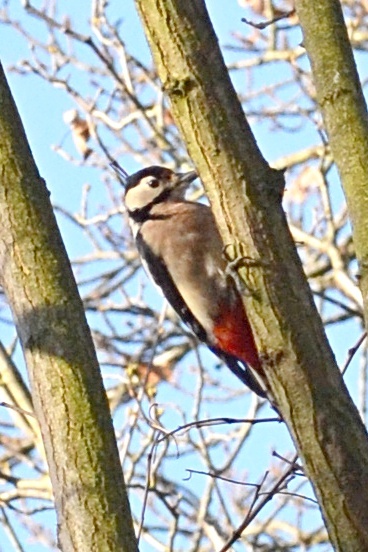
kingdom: Animalia
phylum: Chordata
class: Aves
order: Piciformes
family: Picidae
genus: Dendrocopos
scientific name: Dendrocopos major
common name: Great spotted woodpecker
